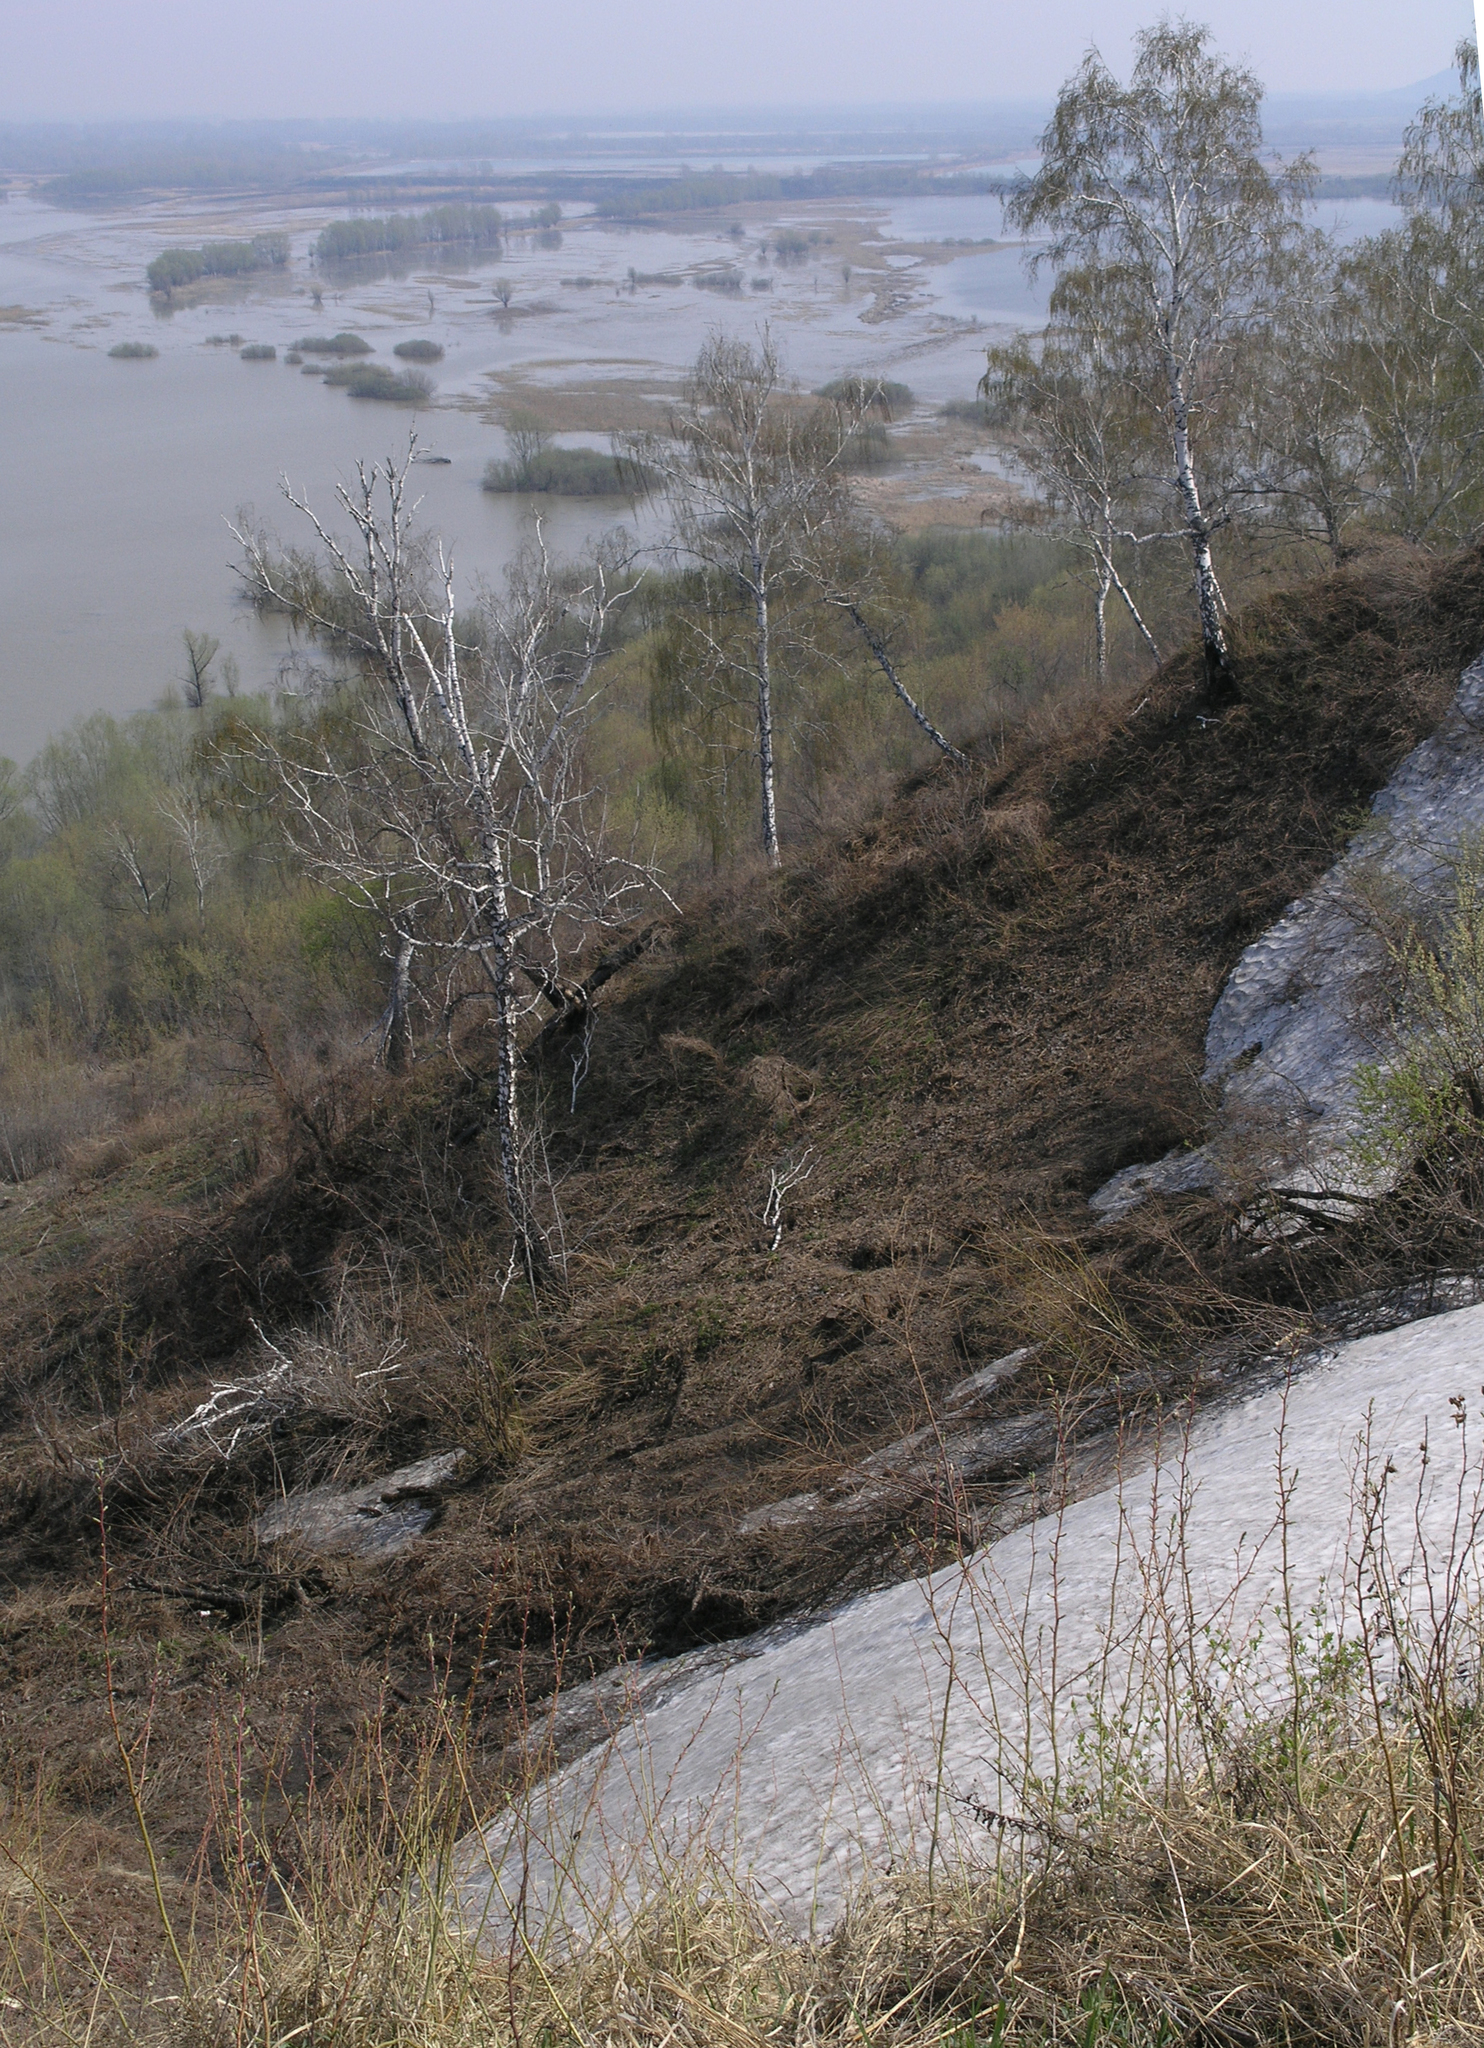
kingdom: Plantae
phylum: Tracheophyta
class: Magnoliopsida
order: Fagales
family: Betulaceae
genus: Betula
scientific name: Betula pendula
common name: Silver birch
